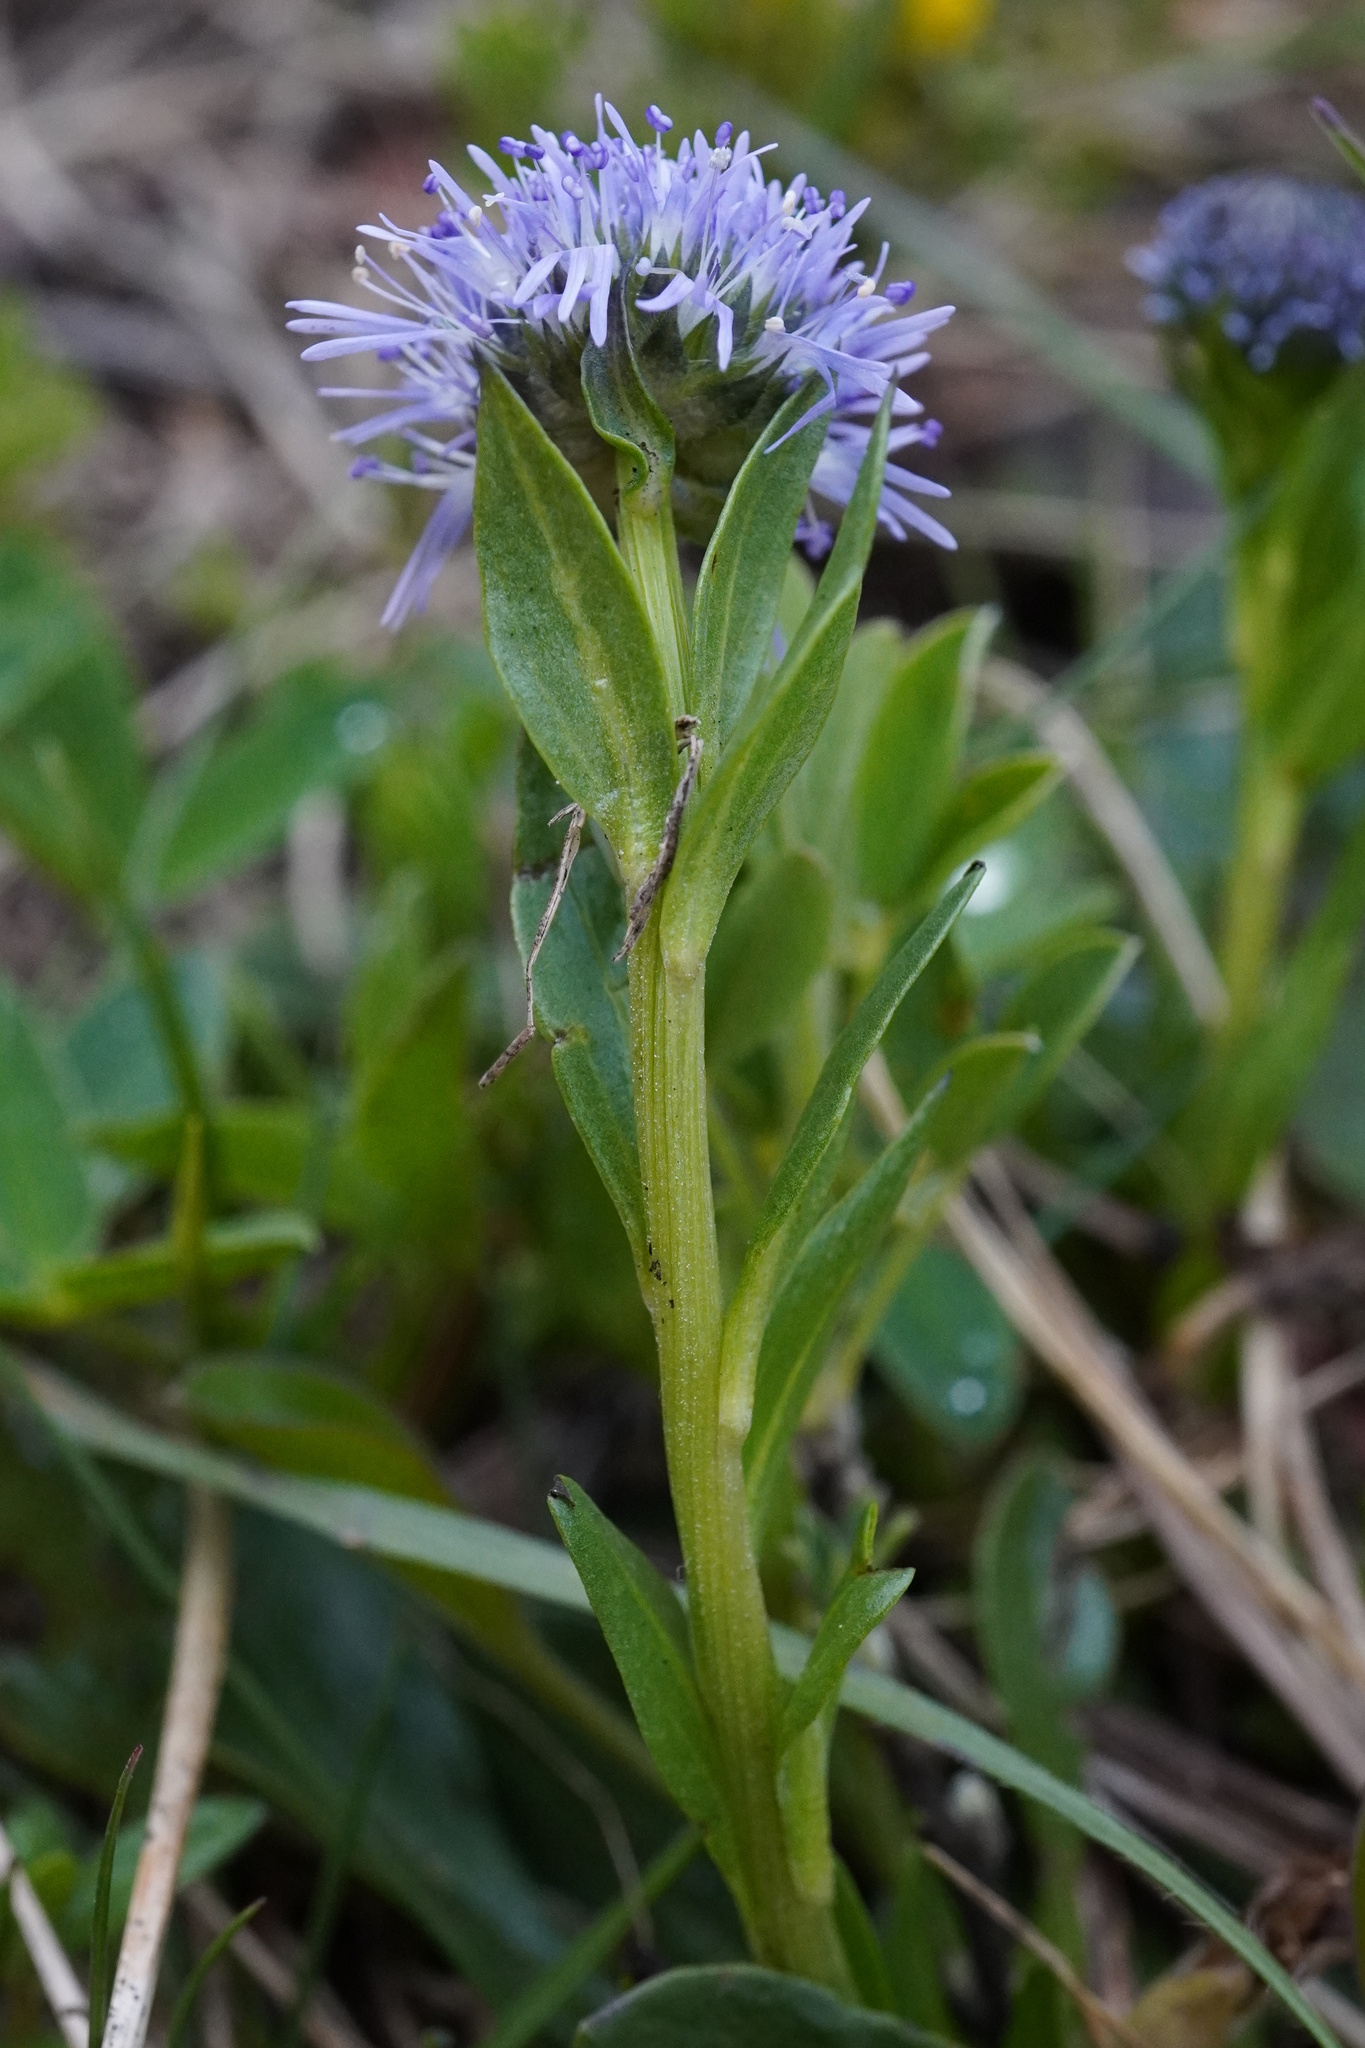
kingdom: Plantae
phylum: Tracheophyta
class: Magnoliopsida
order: Lamiales
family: Plantaginaceae
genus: Globularia
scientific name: Globularia bisnagarica
